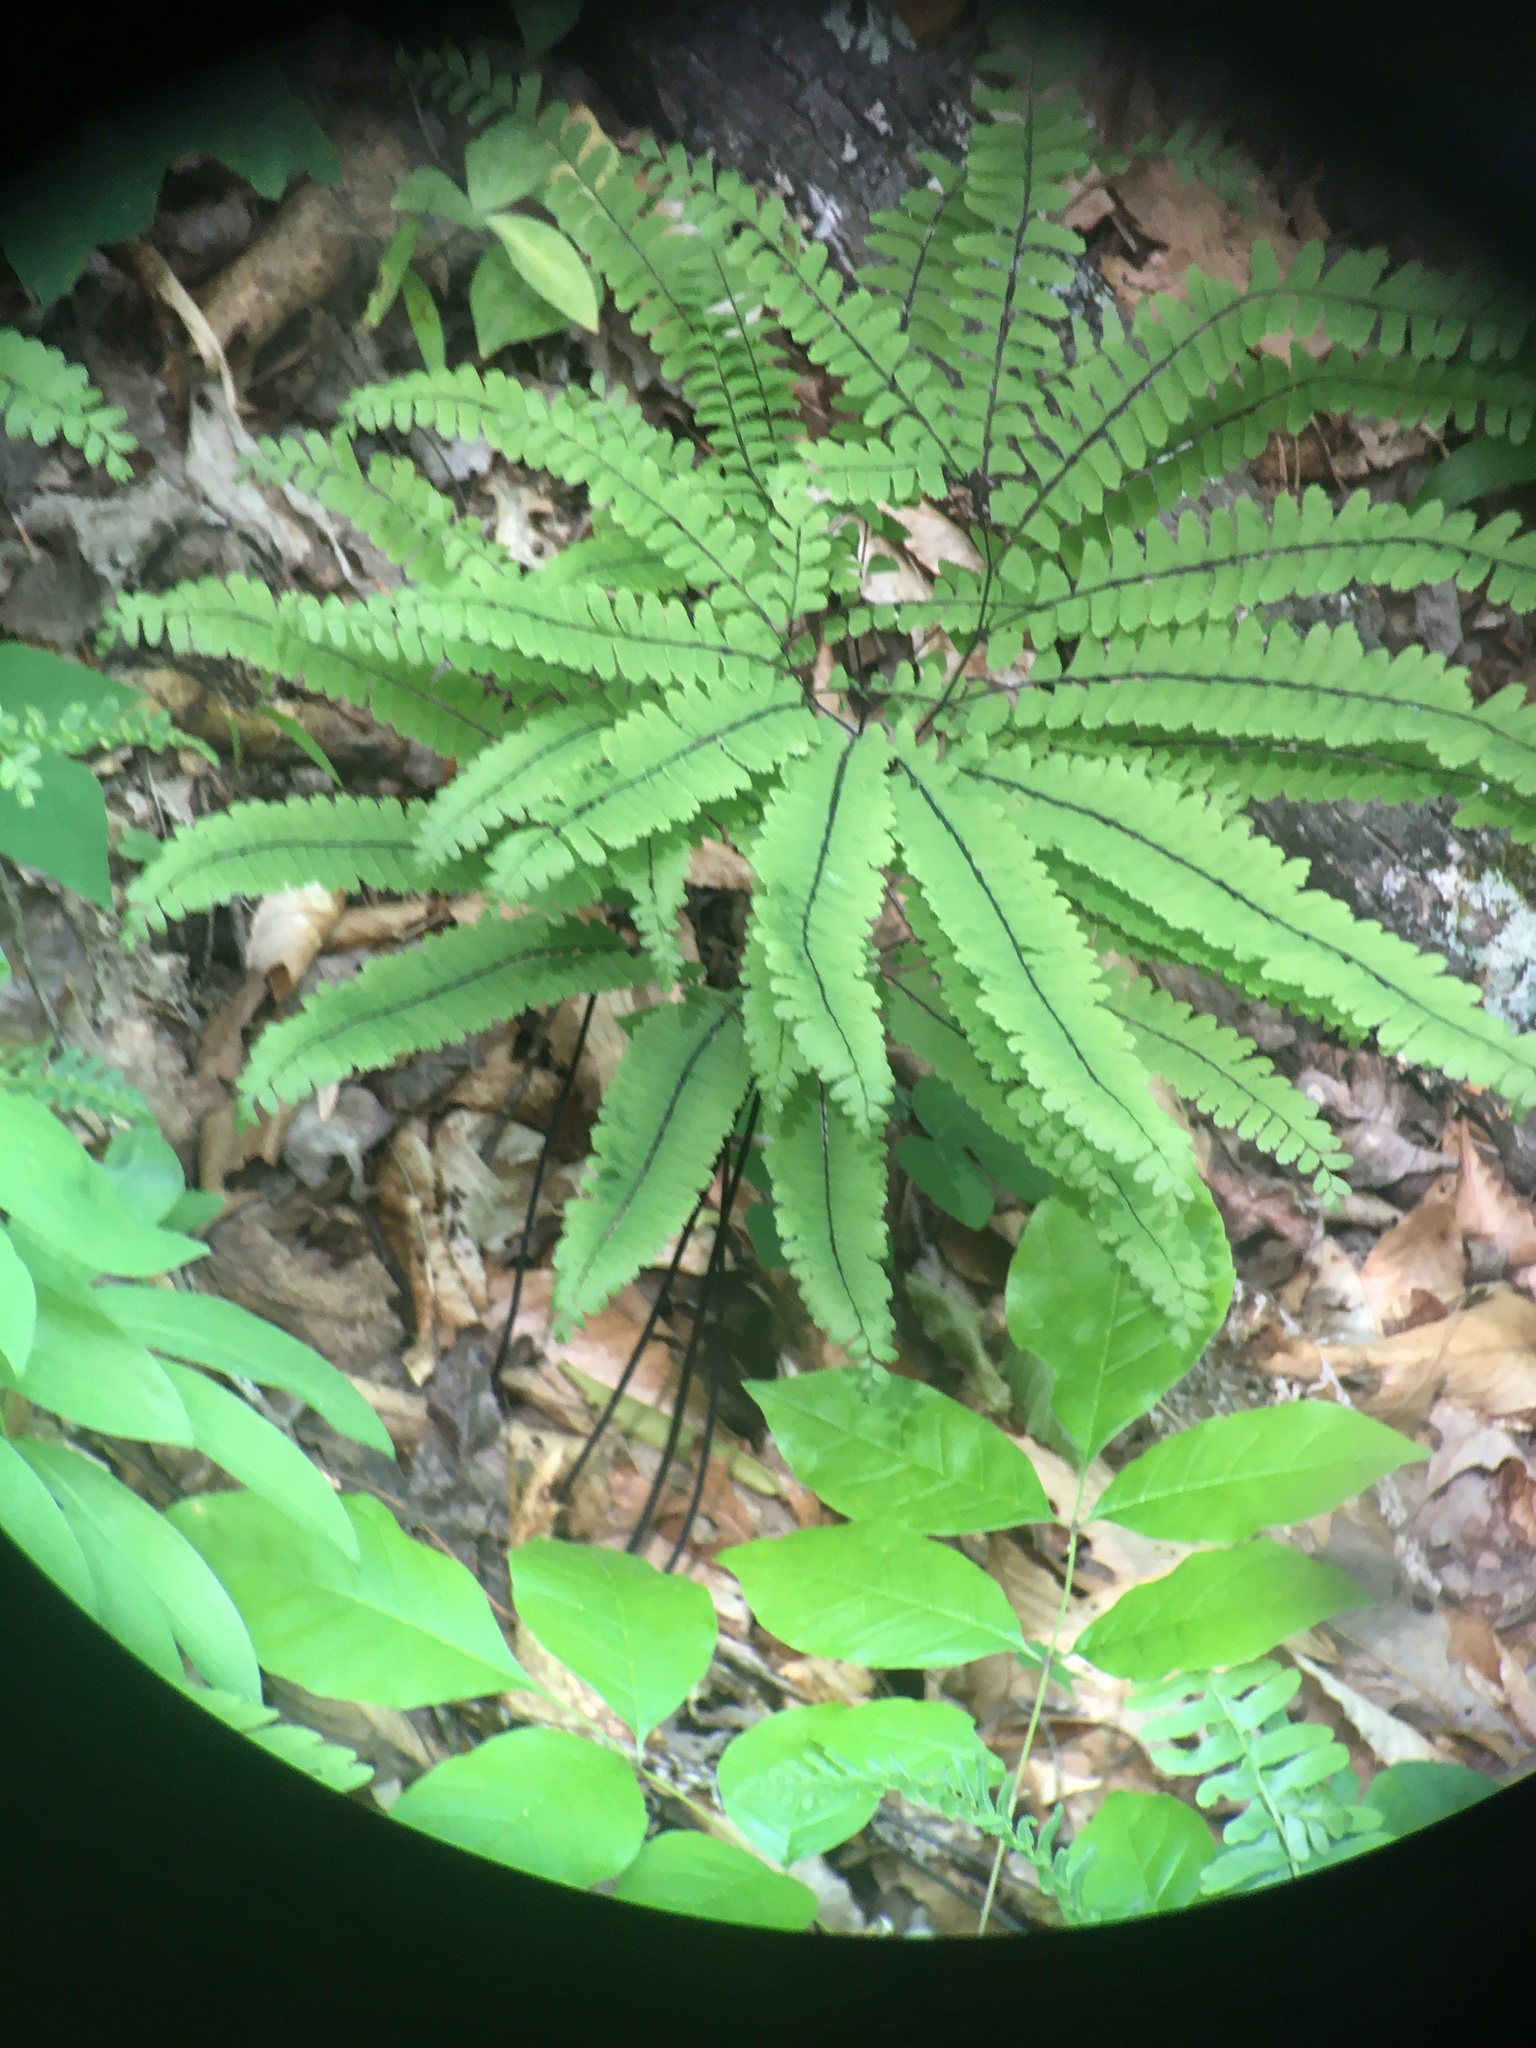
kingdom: Plantae
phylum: Tracheophyta
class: Polypodiopsida
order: Polypodiales
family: Pteridaceae
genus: Adiantum
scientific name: Adiantum pedatum
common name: Five-finger fern
